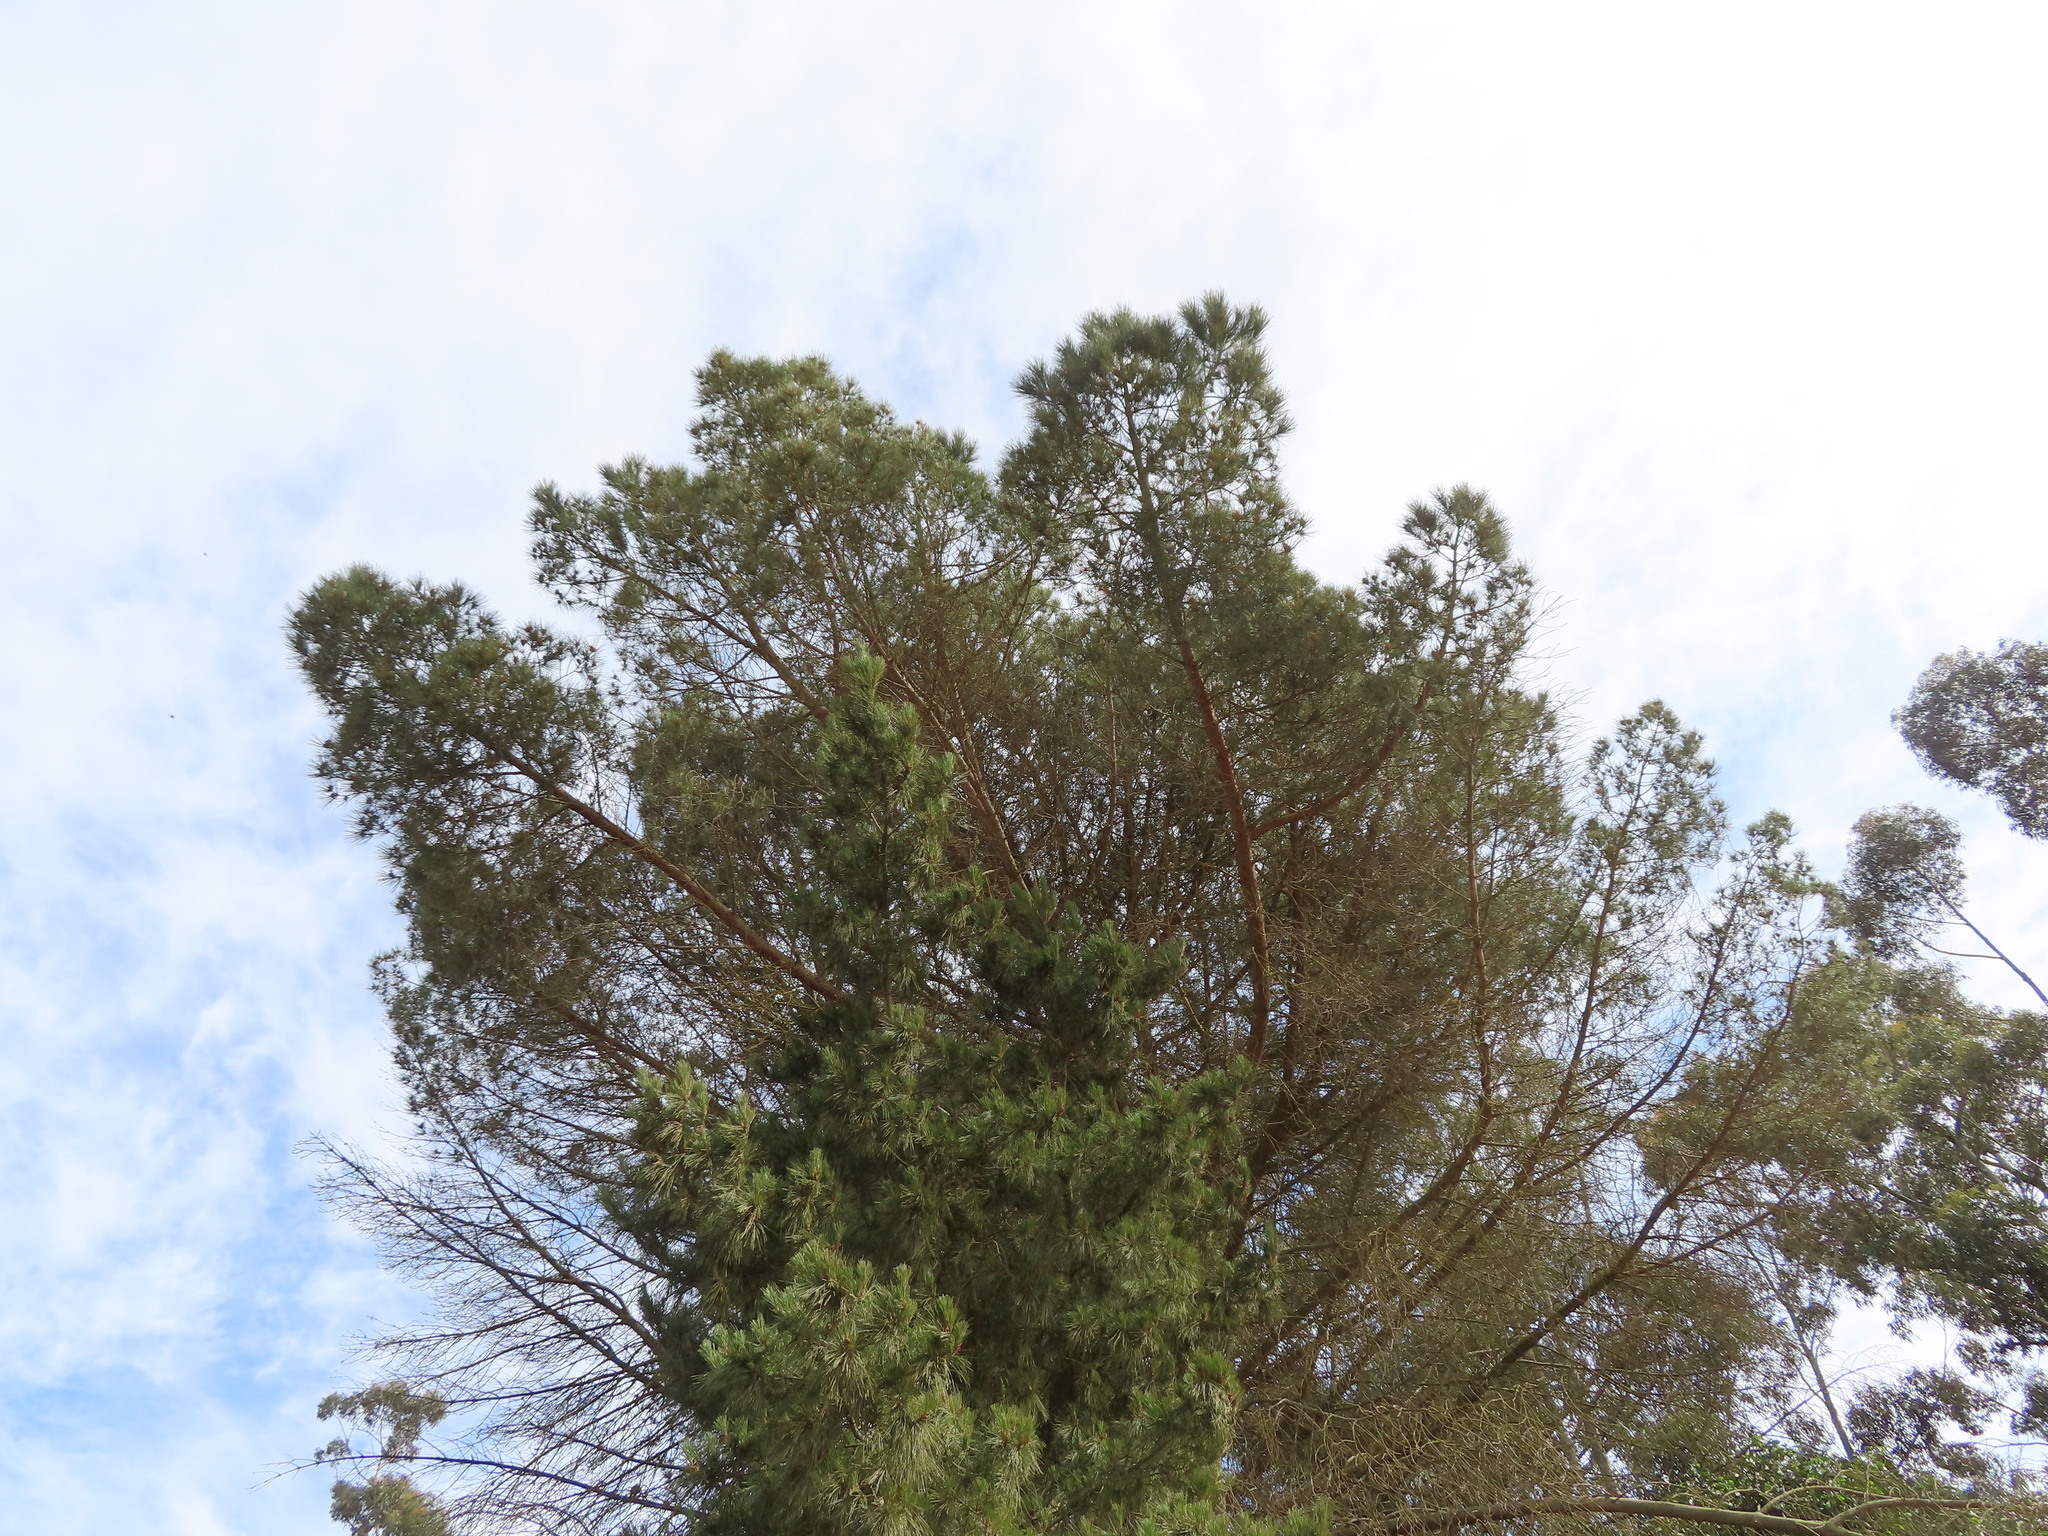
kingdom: Plantae
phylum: Tracheophyta
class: Pinopsida
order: Pinales
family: Pinaceae
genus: Pinus
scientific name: Pinus pinea
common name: Italian stone pine
